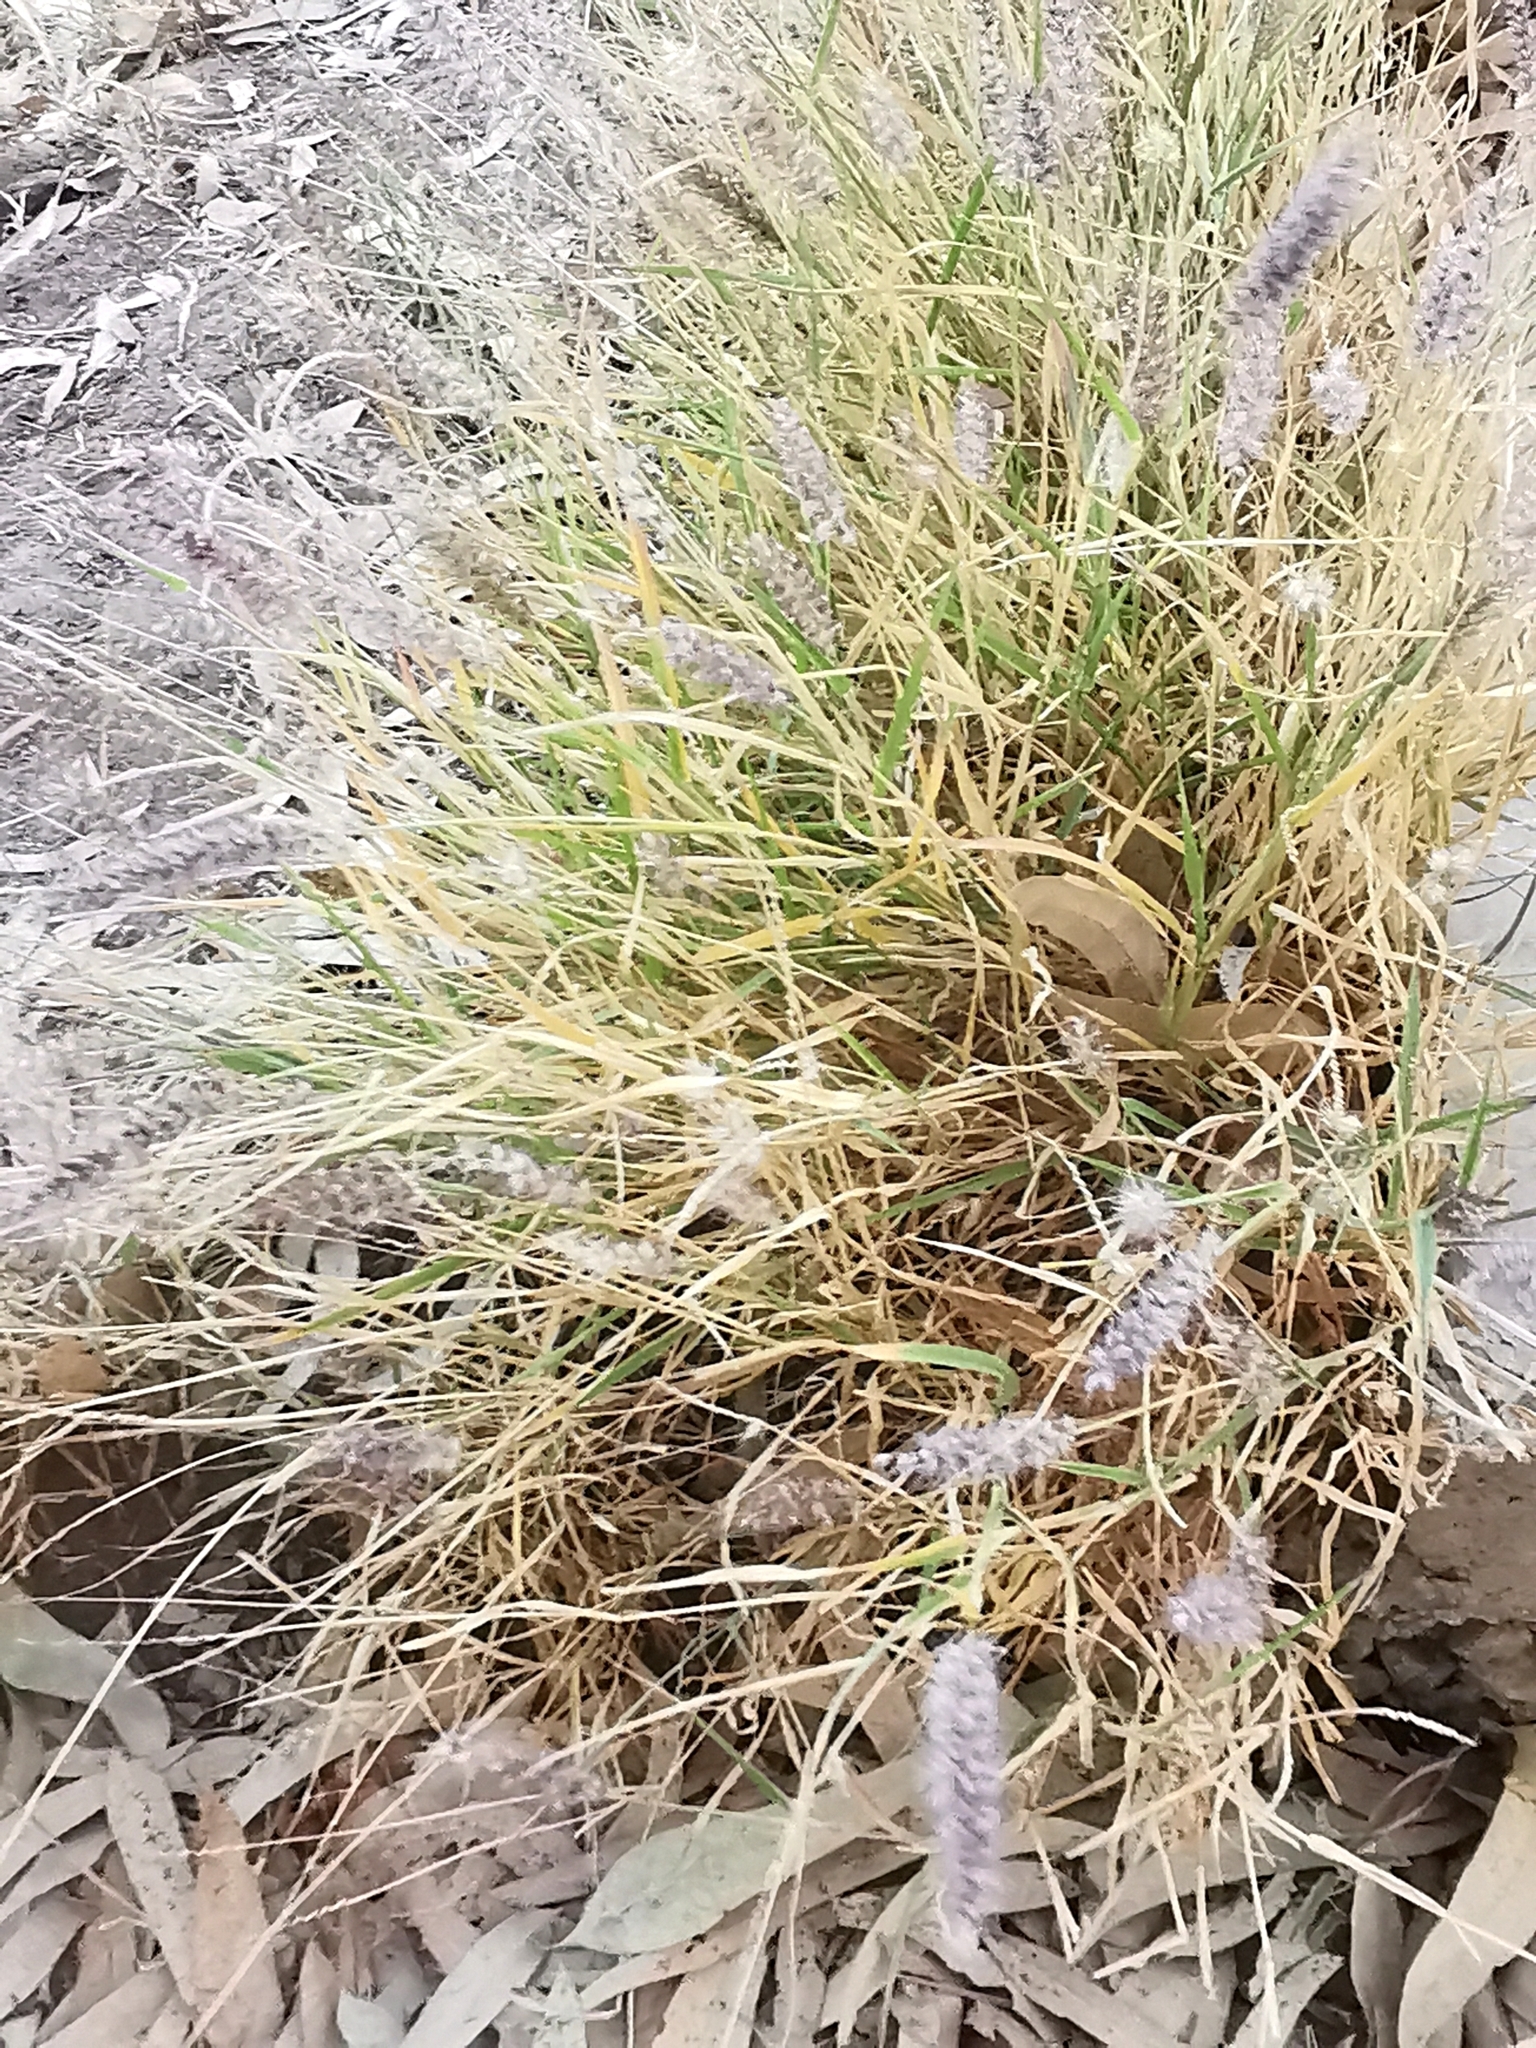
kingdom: Plantae
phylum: Tracheophyta
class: Liliopsida
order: Poales
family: Poaceae
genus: Cenchrus
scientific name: Cenchrus ciliaris
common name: Buffelgrass
